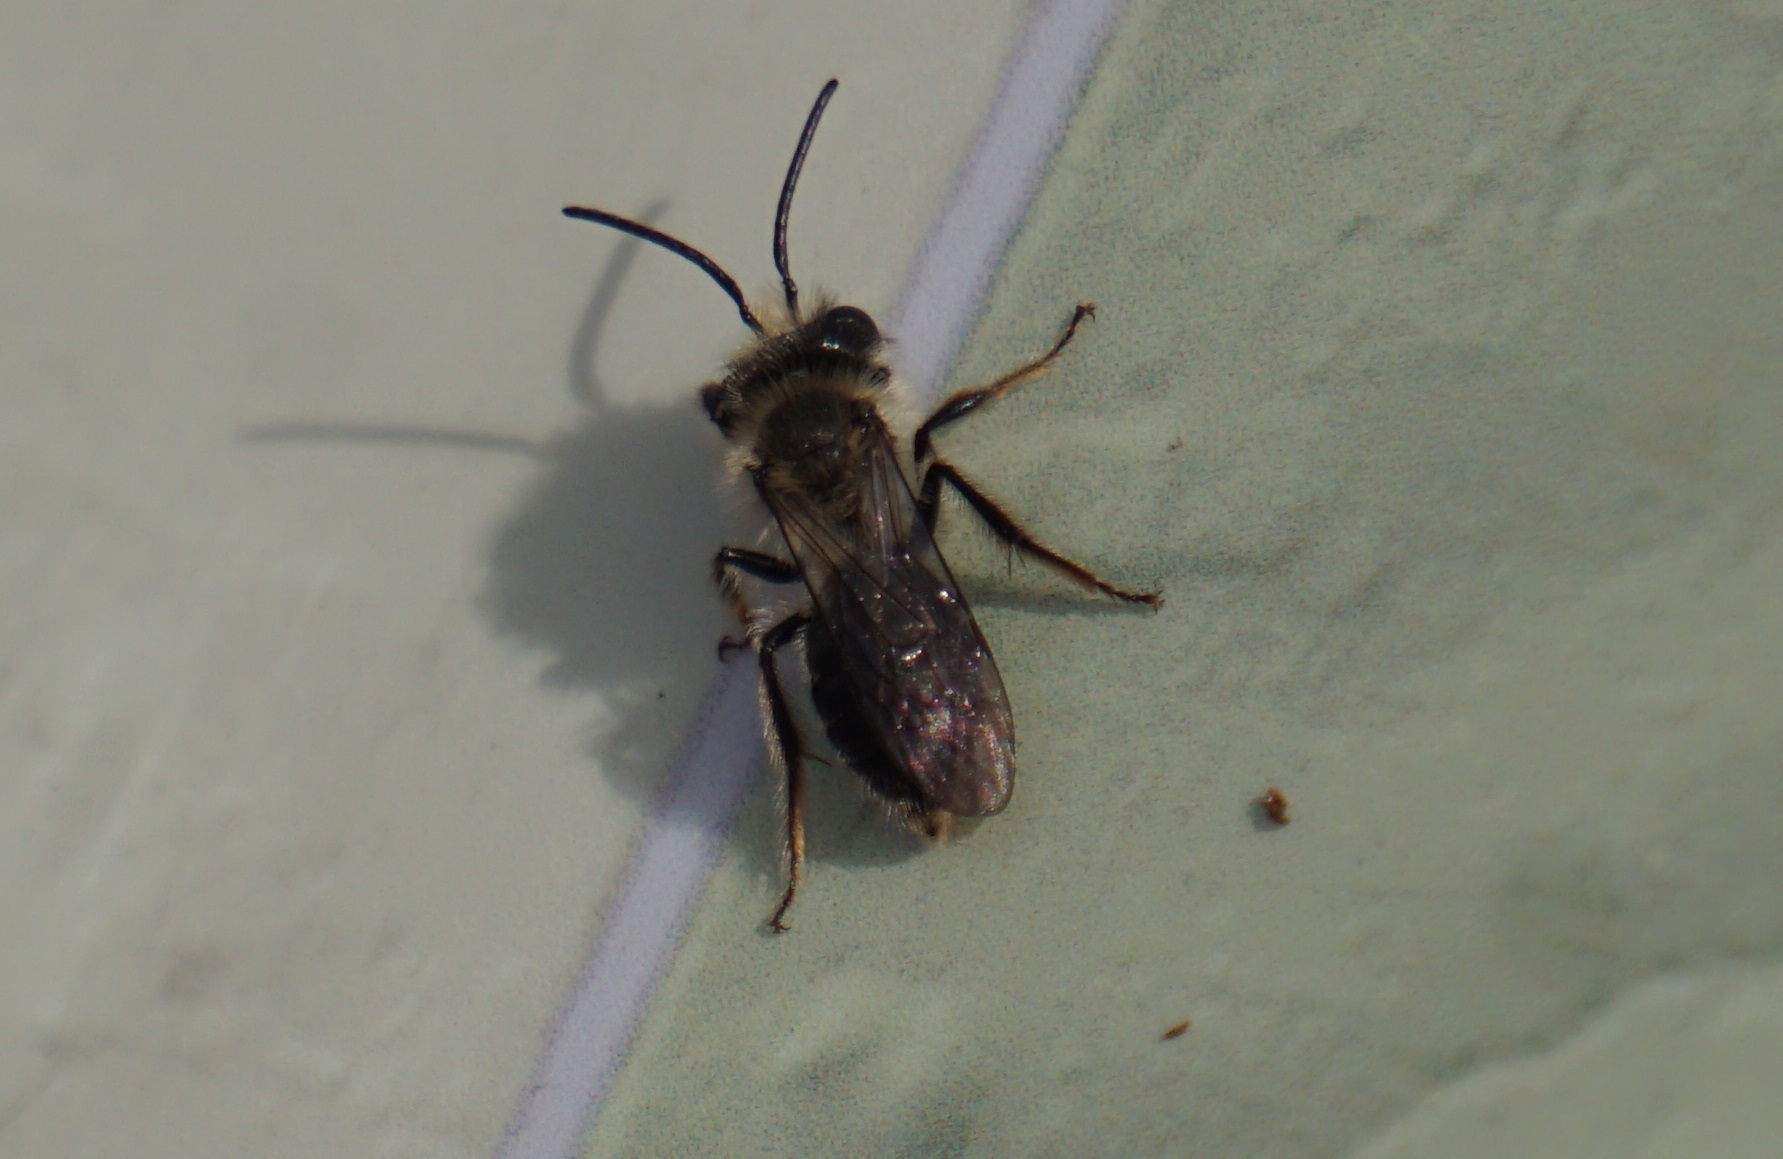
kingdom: Animalia
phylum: Arthropoda
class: Insecta
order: Hymenoptera
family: Andrenidae
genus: Andrena
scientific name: Andrena
